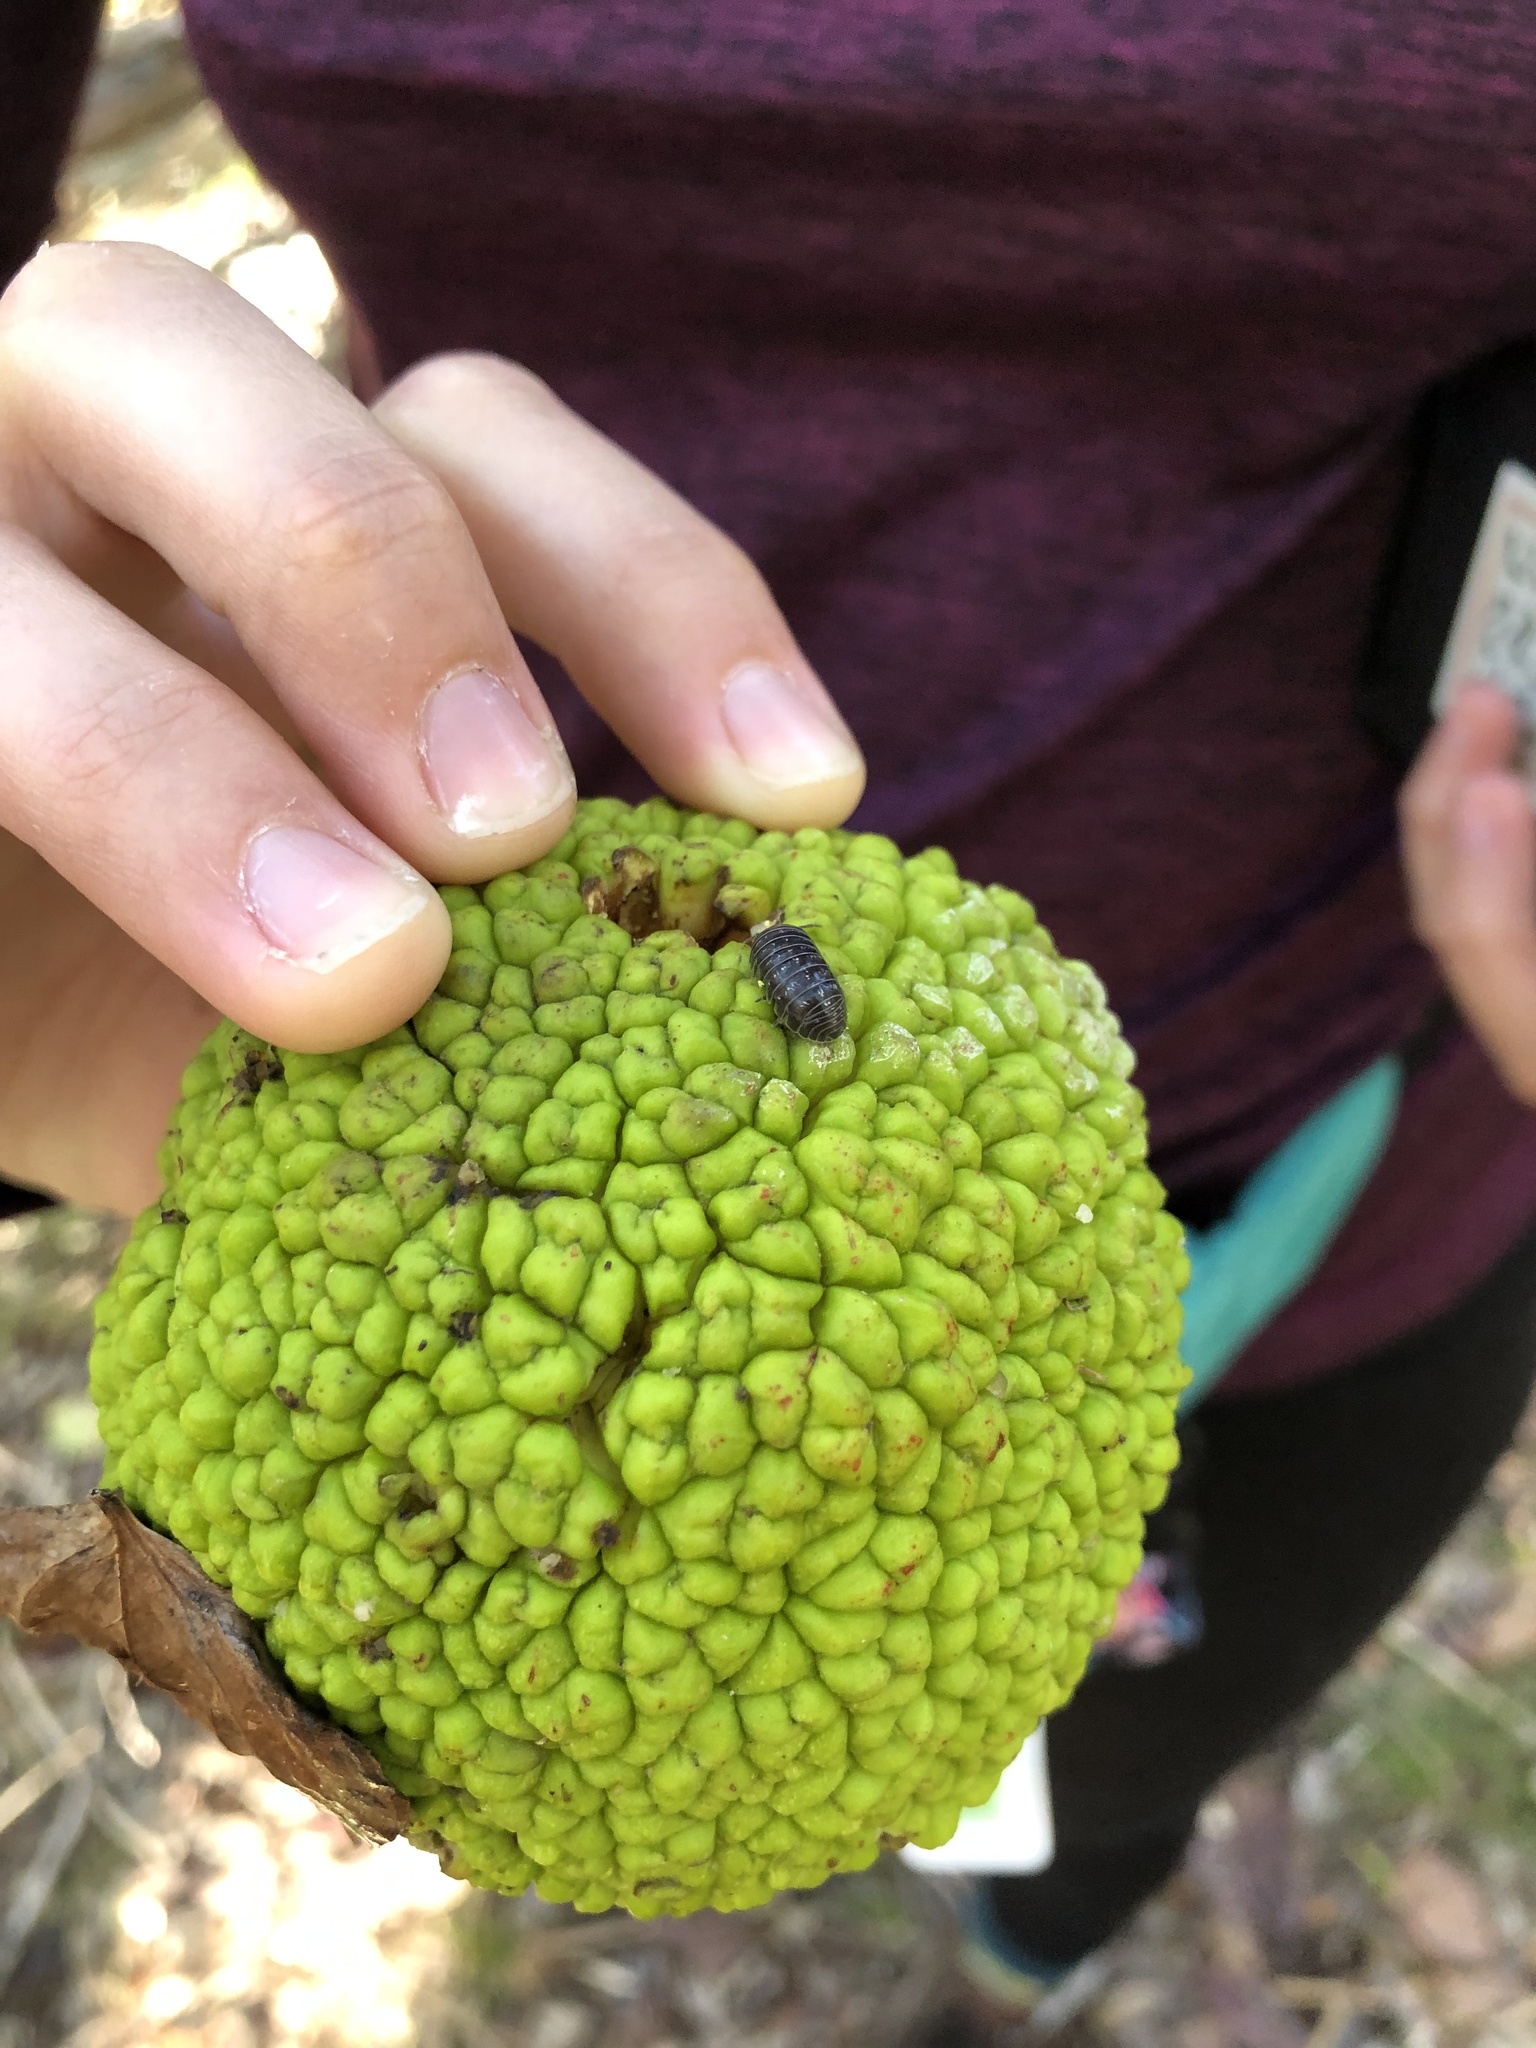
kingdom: Plantae
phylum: Tracheophyta
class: Magnoliopsida
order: Rosales
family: Moraceae
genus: Maclura
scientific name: Maclura pomifera
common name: Osage-orange
